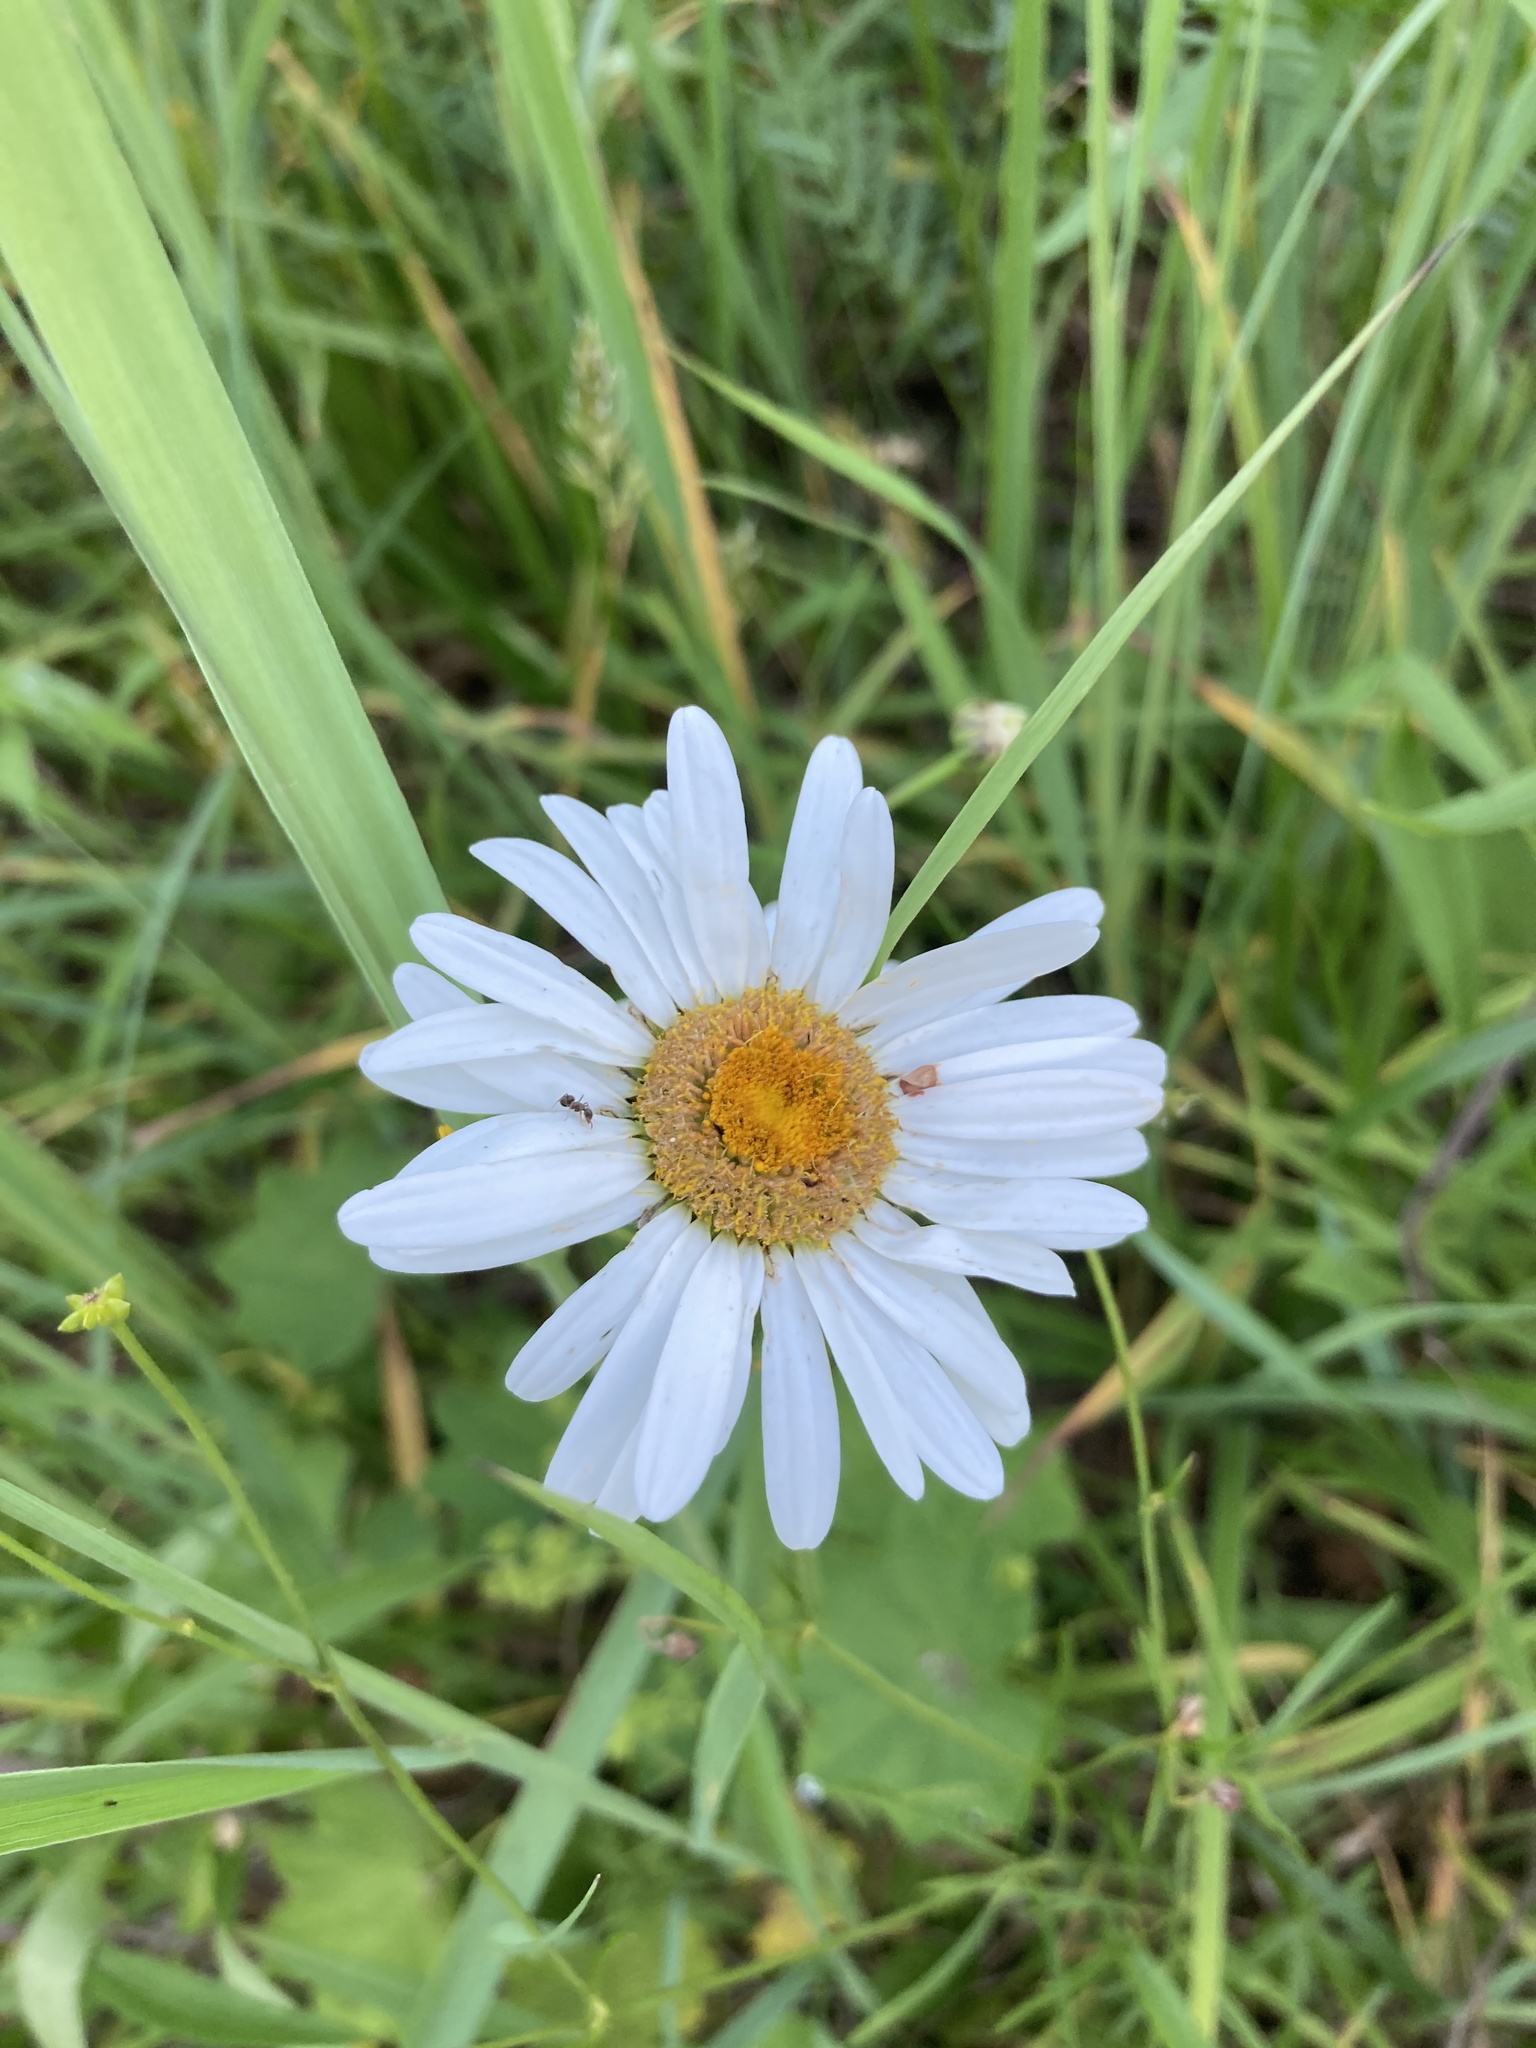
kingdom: Plantae
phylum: Tracheophyta
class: Magnoliopsida
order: Asterales
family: Asteraceae
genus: Leucanthemum
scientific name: Leucanthemum vulgare
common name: Oxeye daisy
